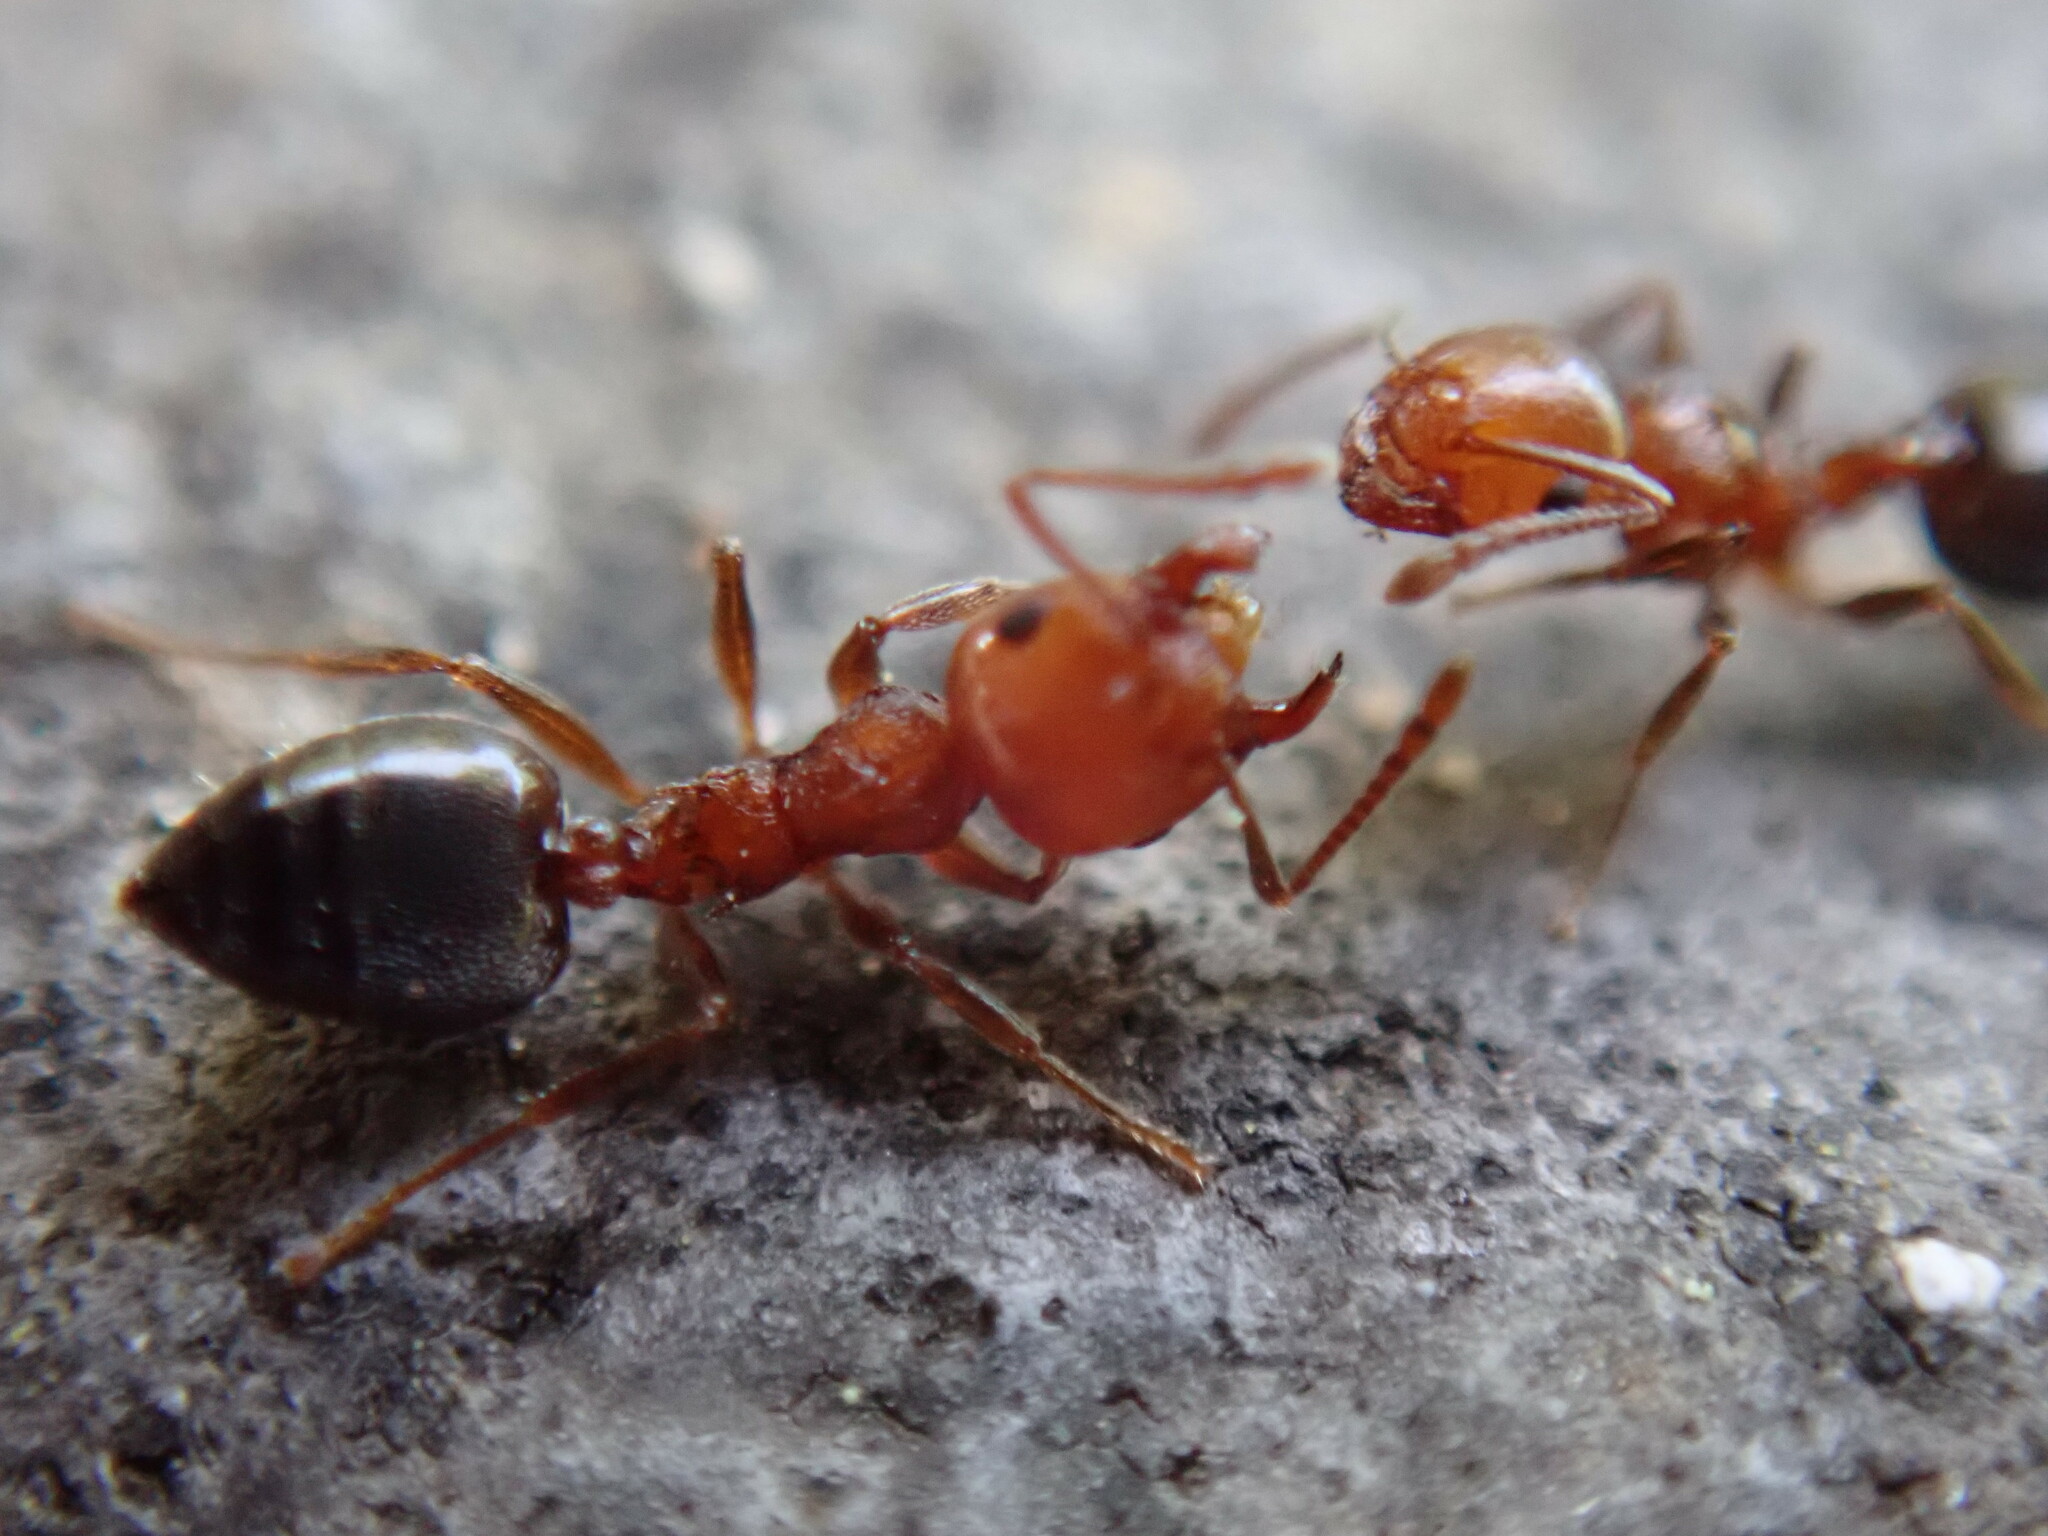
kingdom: Animalia
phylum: Arthropoda
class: Insecta
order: Hymenoptera
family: Formicidae
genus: Crematogaster
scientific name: Crematogaster schmidti
